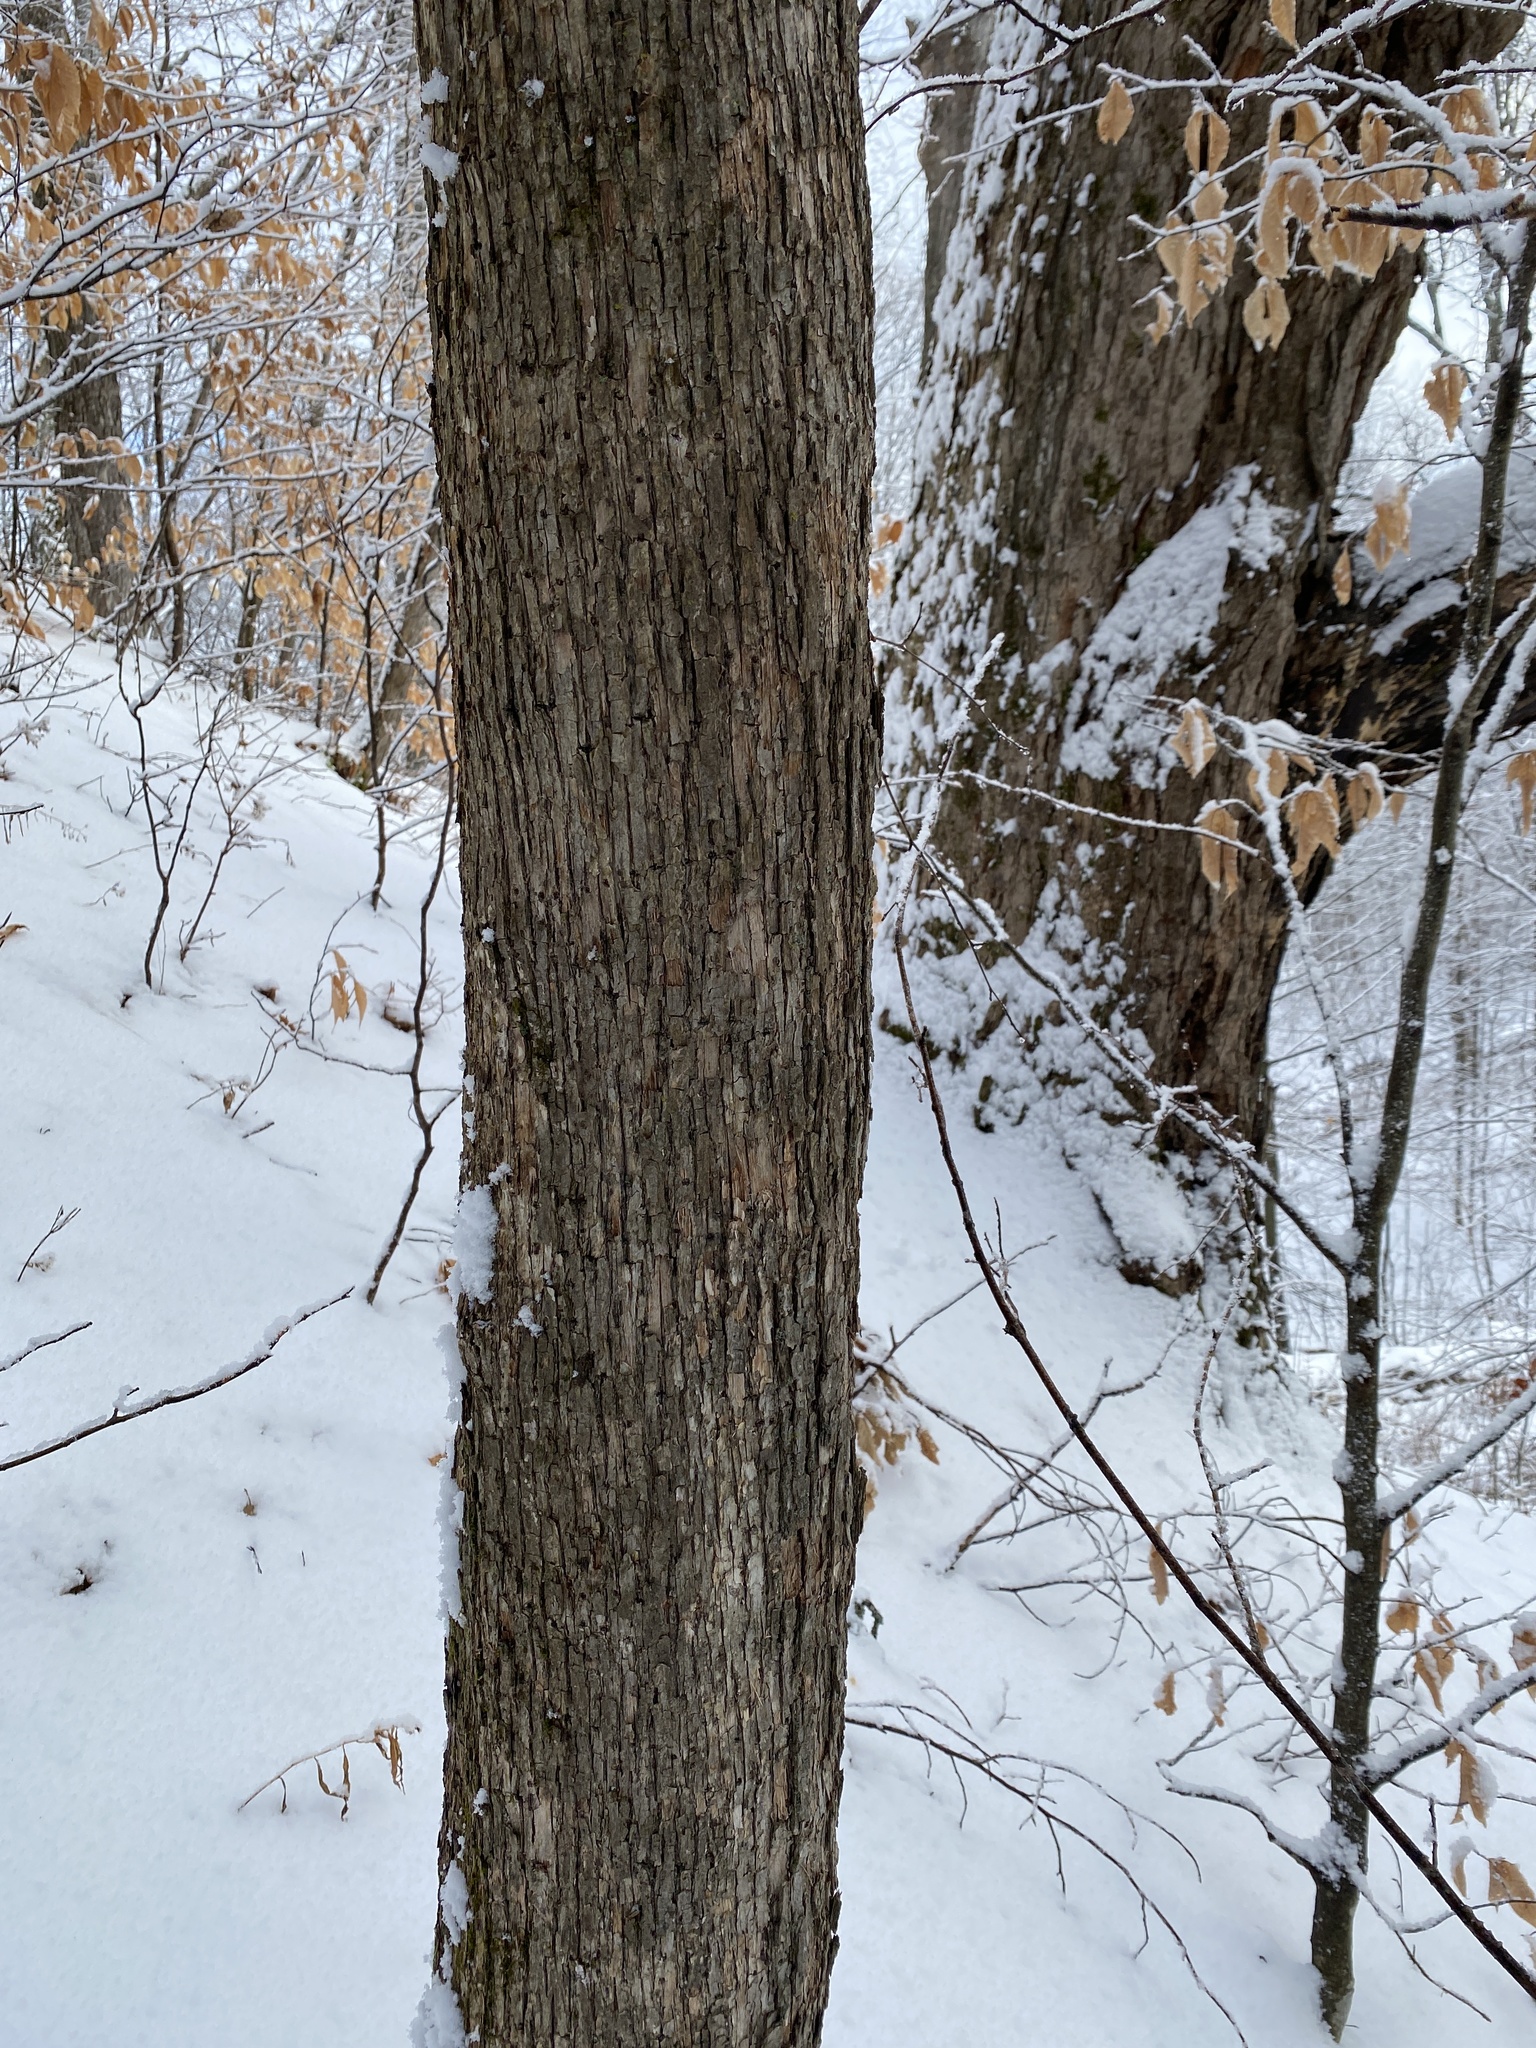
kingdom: Plantae
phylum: Tracheophyta
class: Magnoliopsida
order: Fagales
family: Betulaceae
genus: Ostrya
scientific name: Ostrya virginiana
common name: Ironwood
